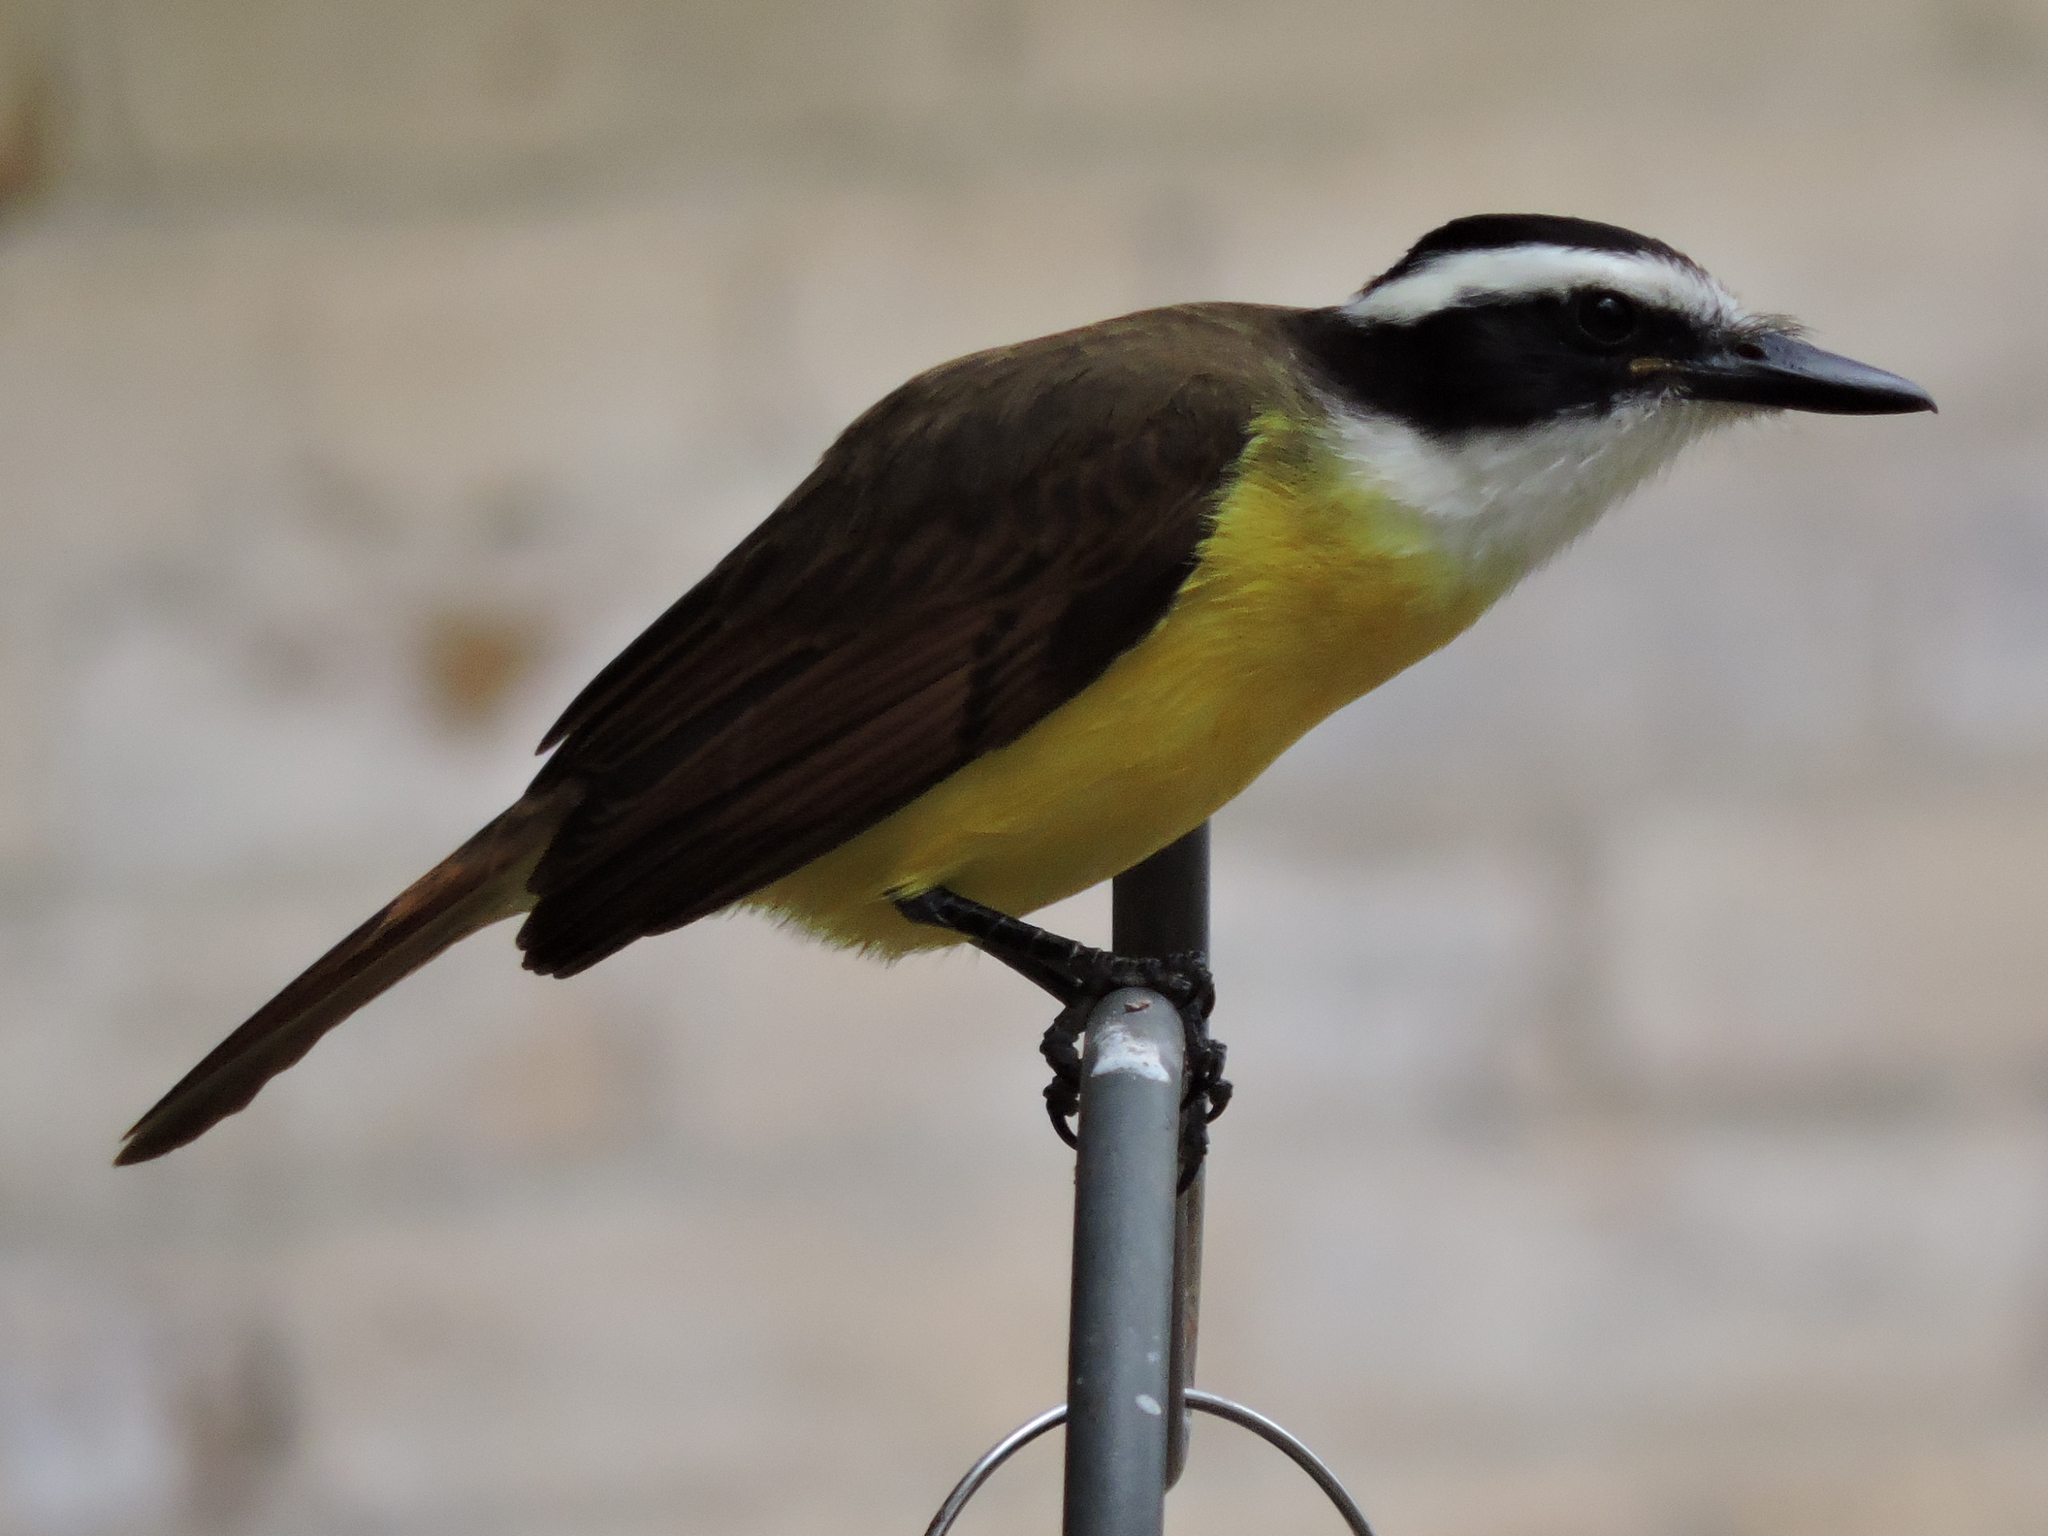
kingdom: Animalia
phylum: Chordata
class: Aves
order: Passeriformes
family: Tyrannidae
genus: Pitangus
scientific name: Pitangus sulphuratus
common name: Great kiskadee
